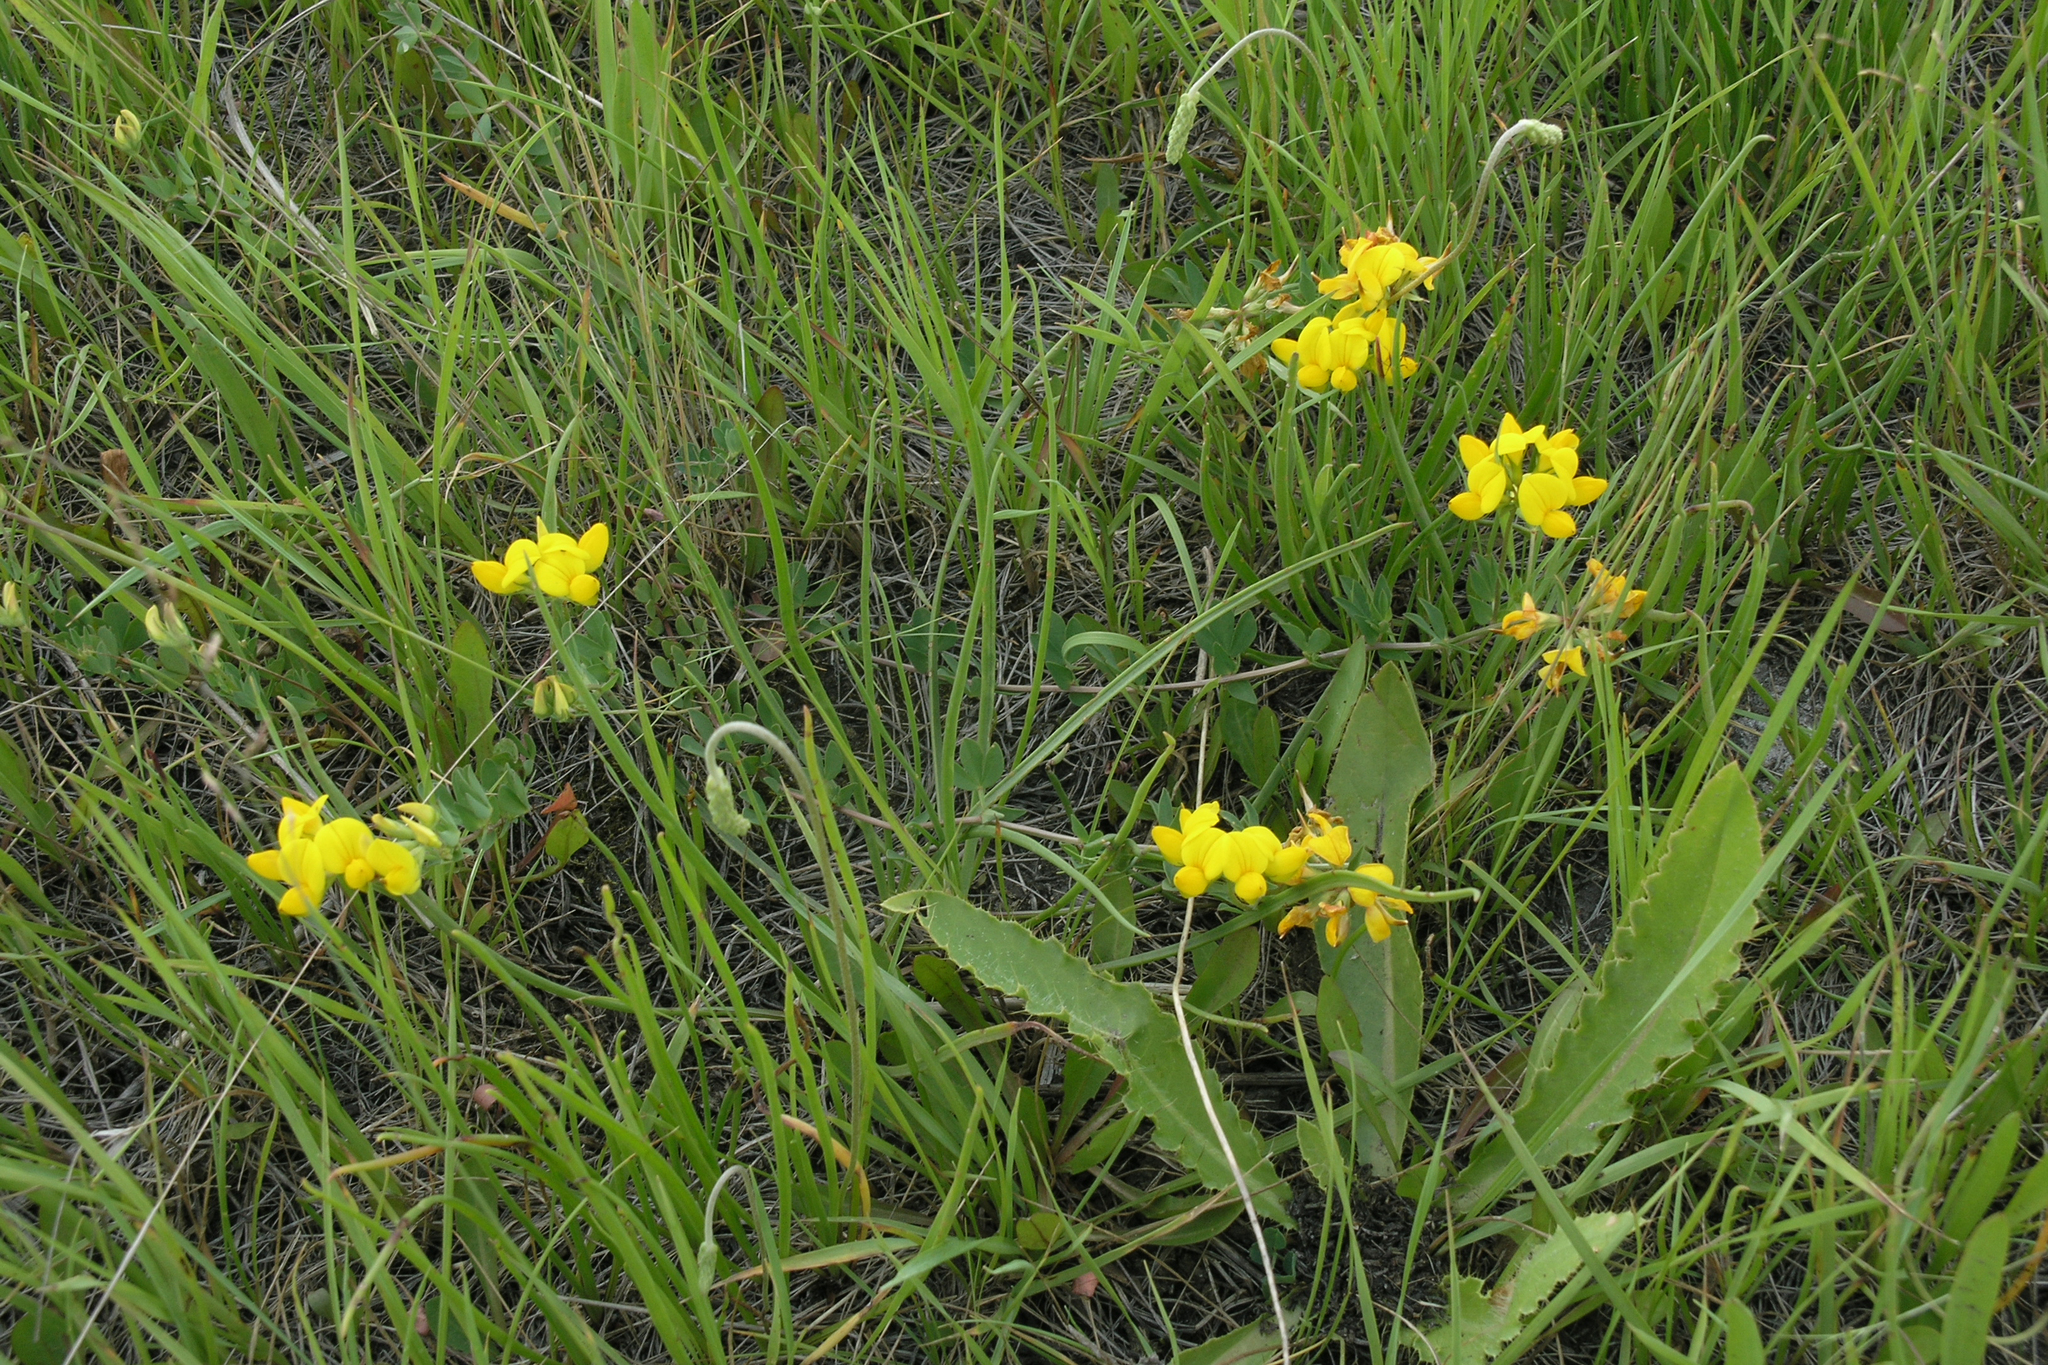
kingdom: Plantae
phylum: Tracheophyta
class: Magnoliopsida
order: Fabales
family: Fabaceae
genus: Lotus
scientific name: Lotus corniculatus
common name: Common bird's-foot-trefoil
